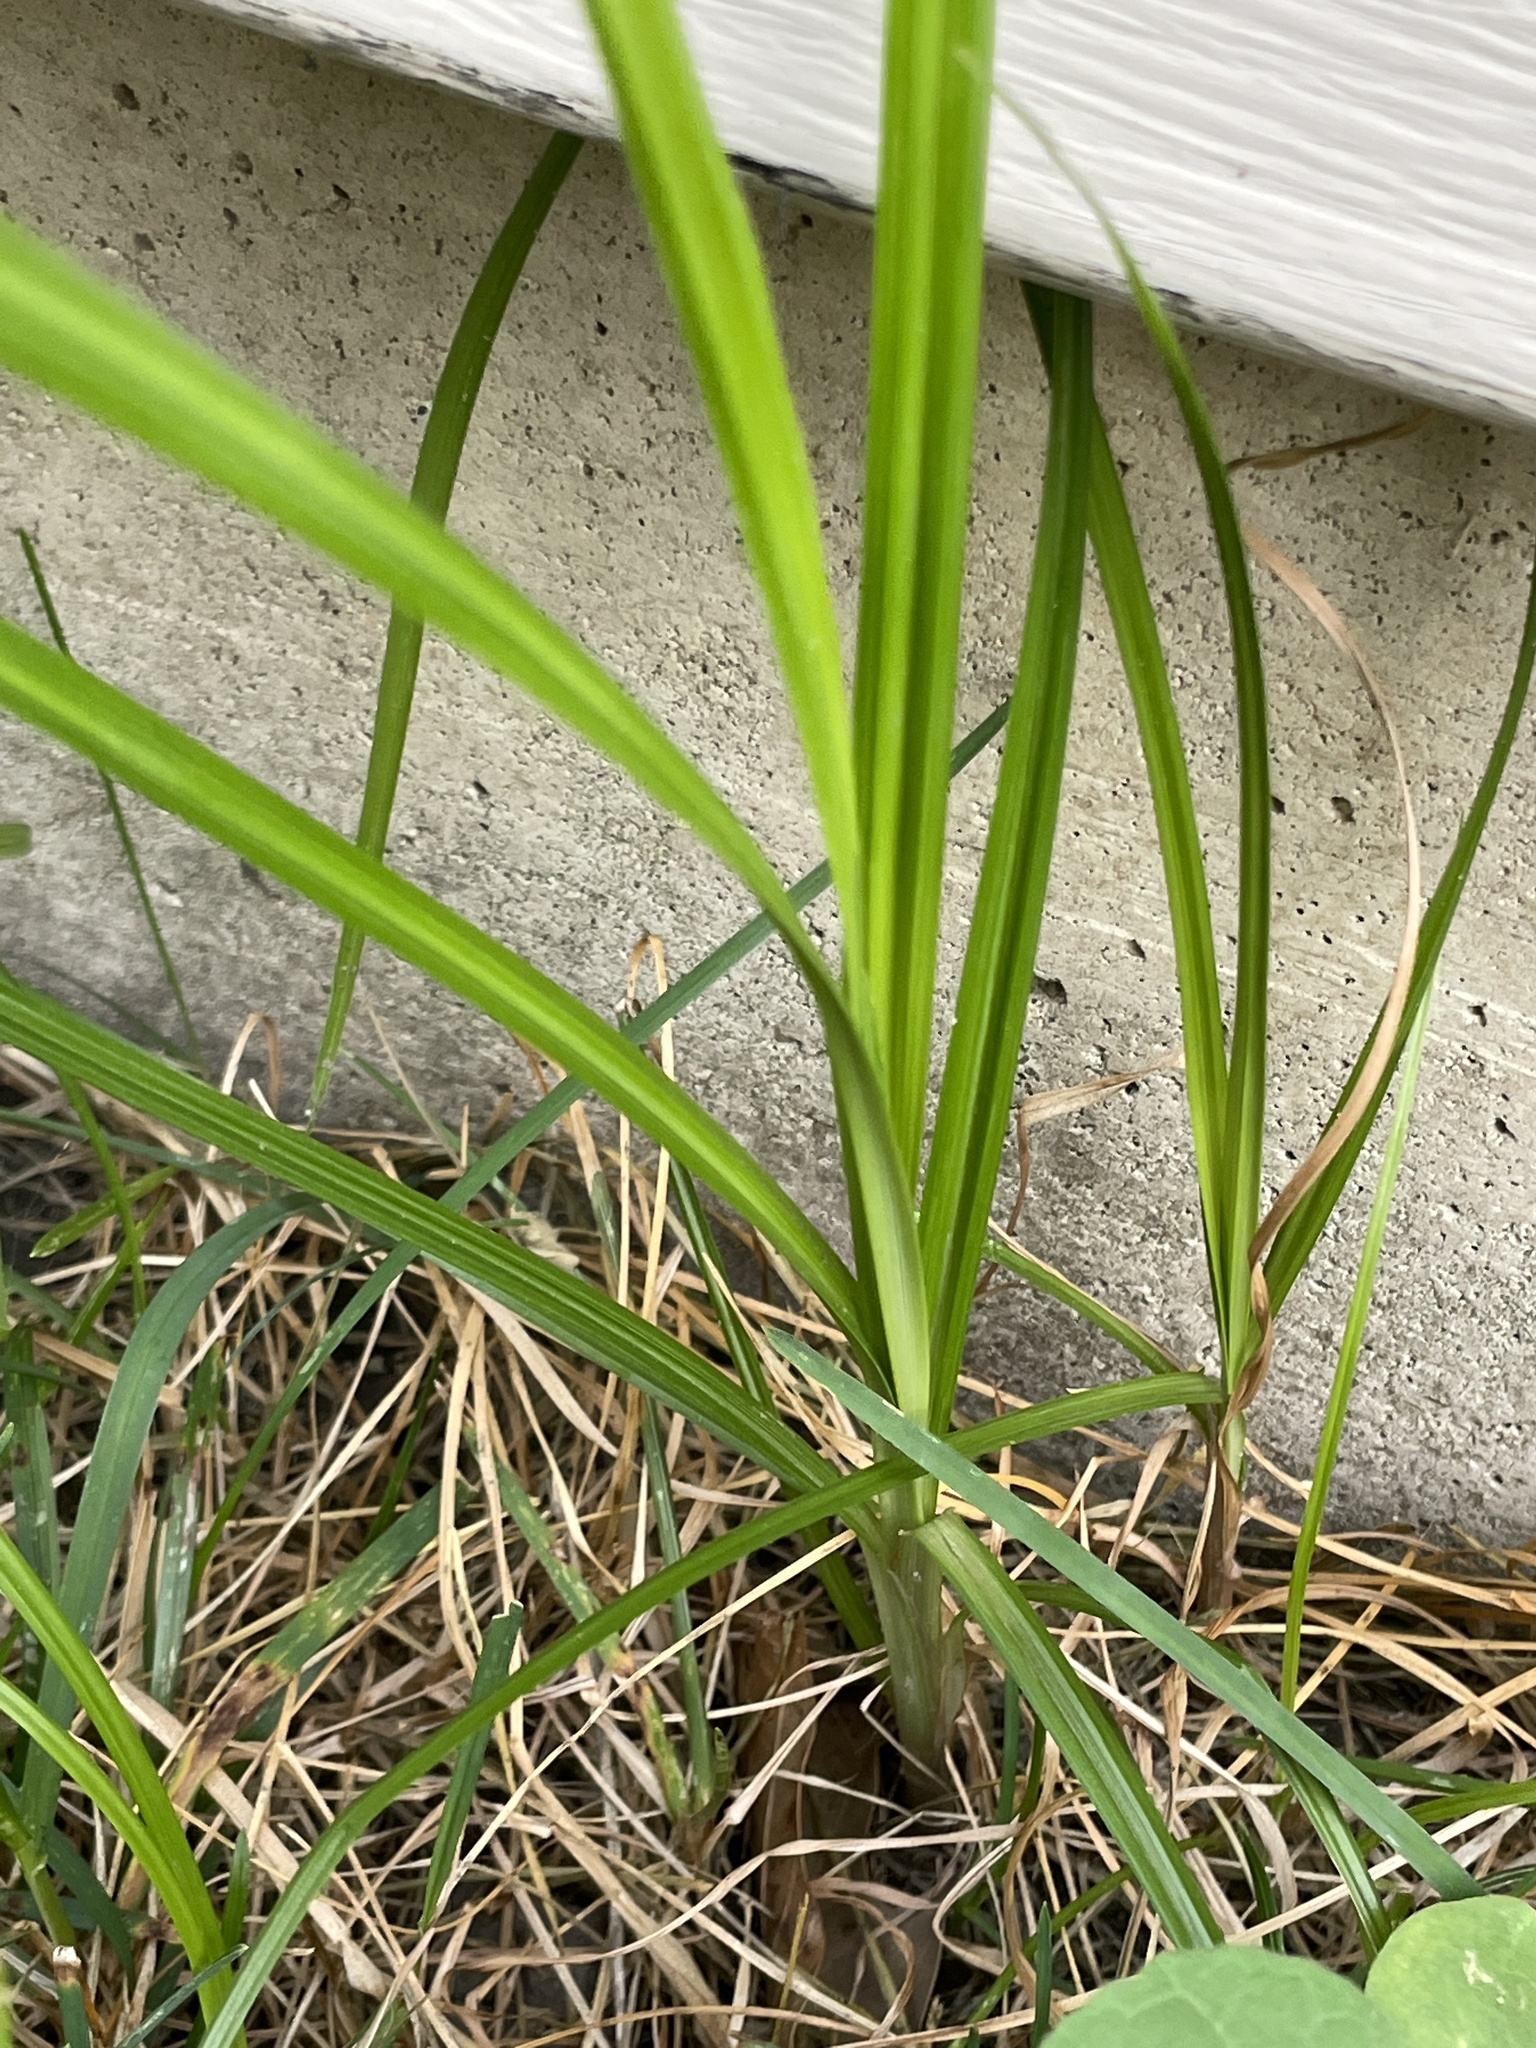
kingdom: Plantae
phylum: Tracheophyta
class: Liliopsida
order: Poales
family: Cyperaceae
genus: Cyperus
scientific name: Cyperus esculentus
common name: Yellow nutsedge
